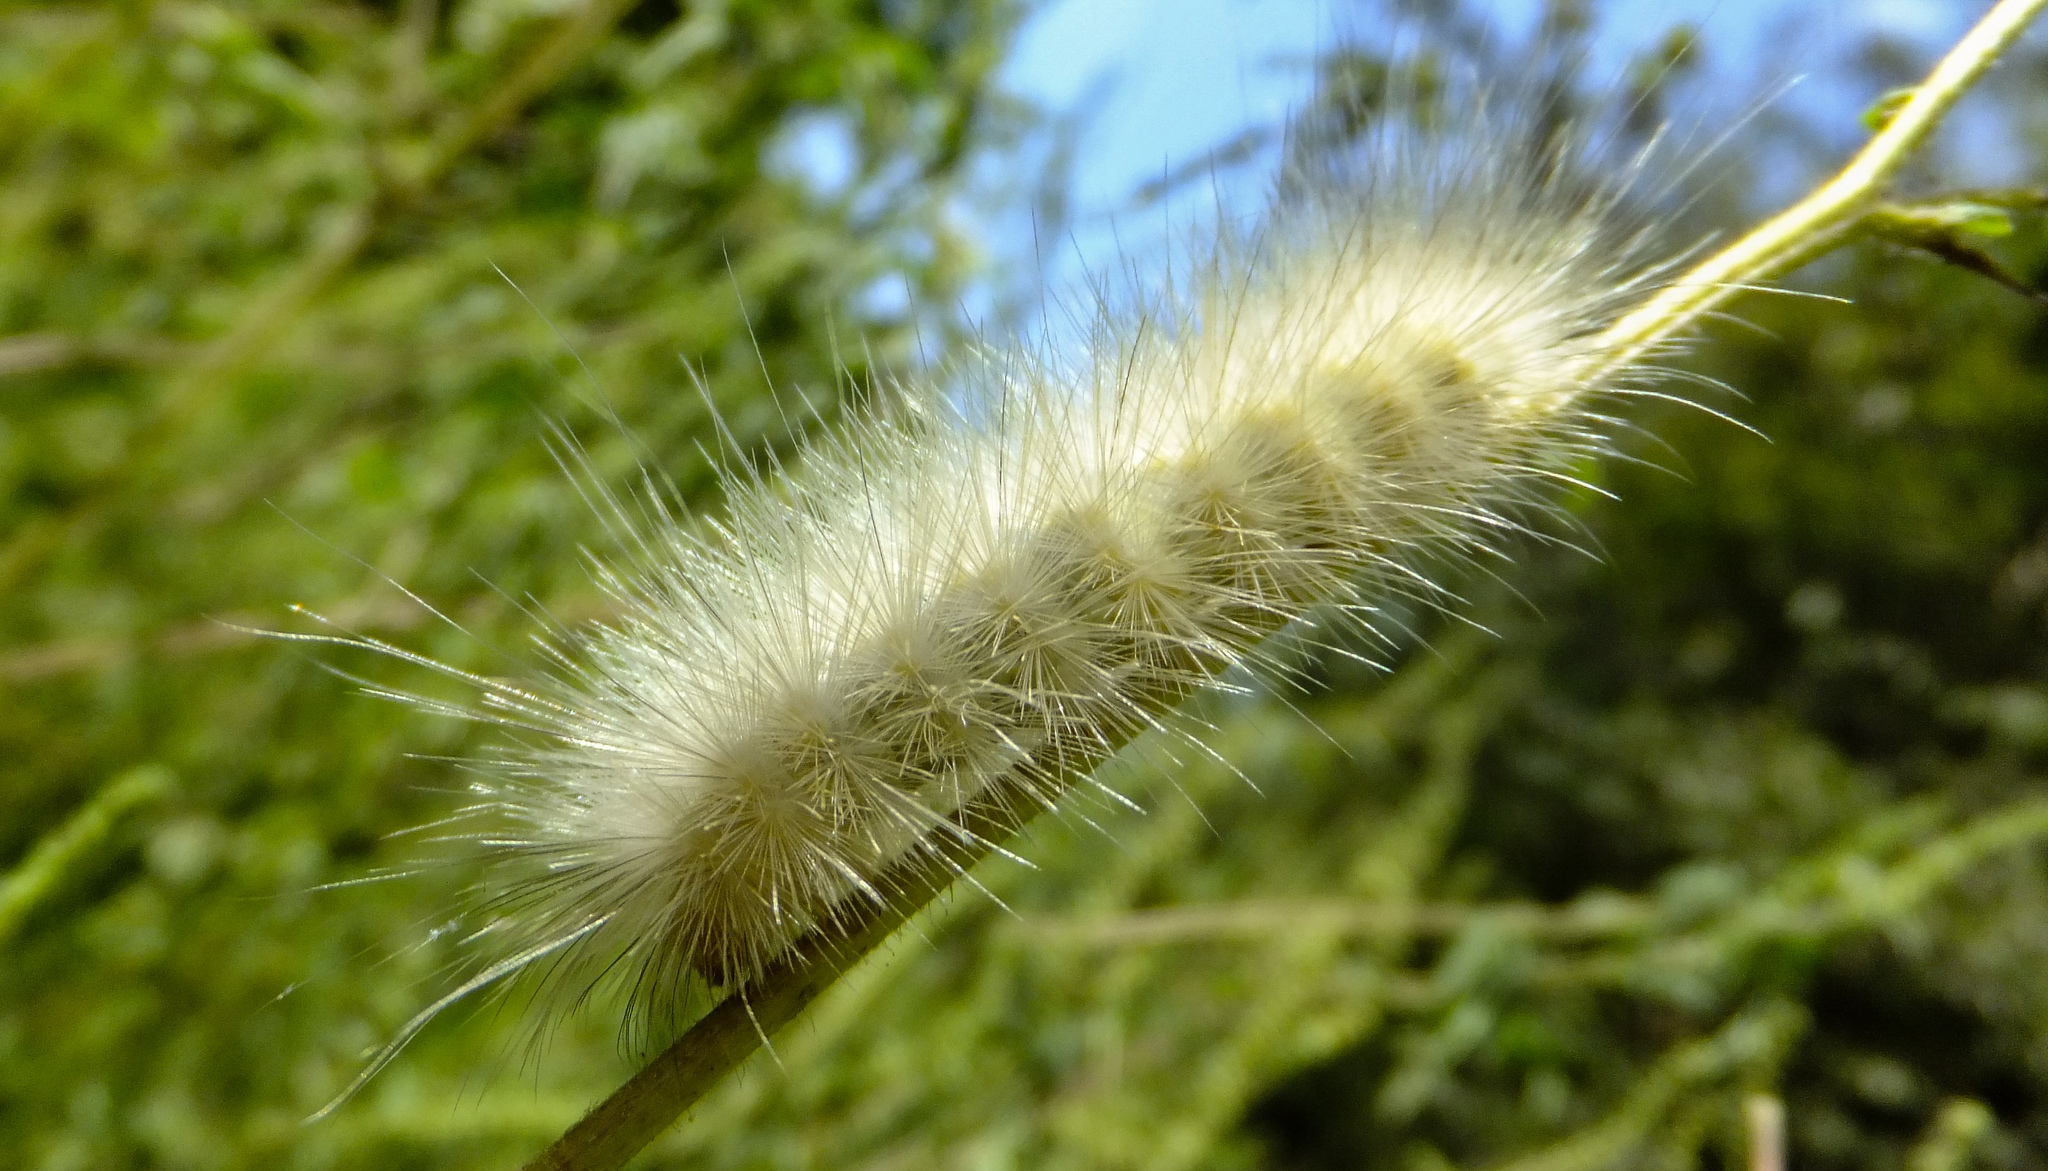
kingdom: Animalia
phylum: Arthropoda
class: Insecta
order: Lepidoptera
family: Erebidae
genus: Spilosoma
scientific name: Spilosoma virginica
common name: Virginia tiger moth
